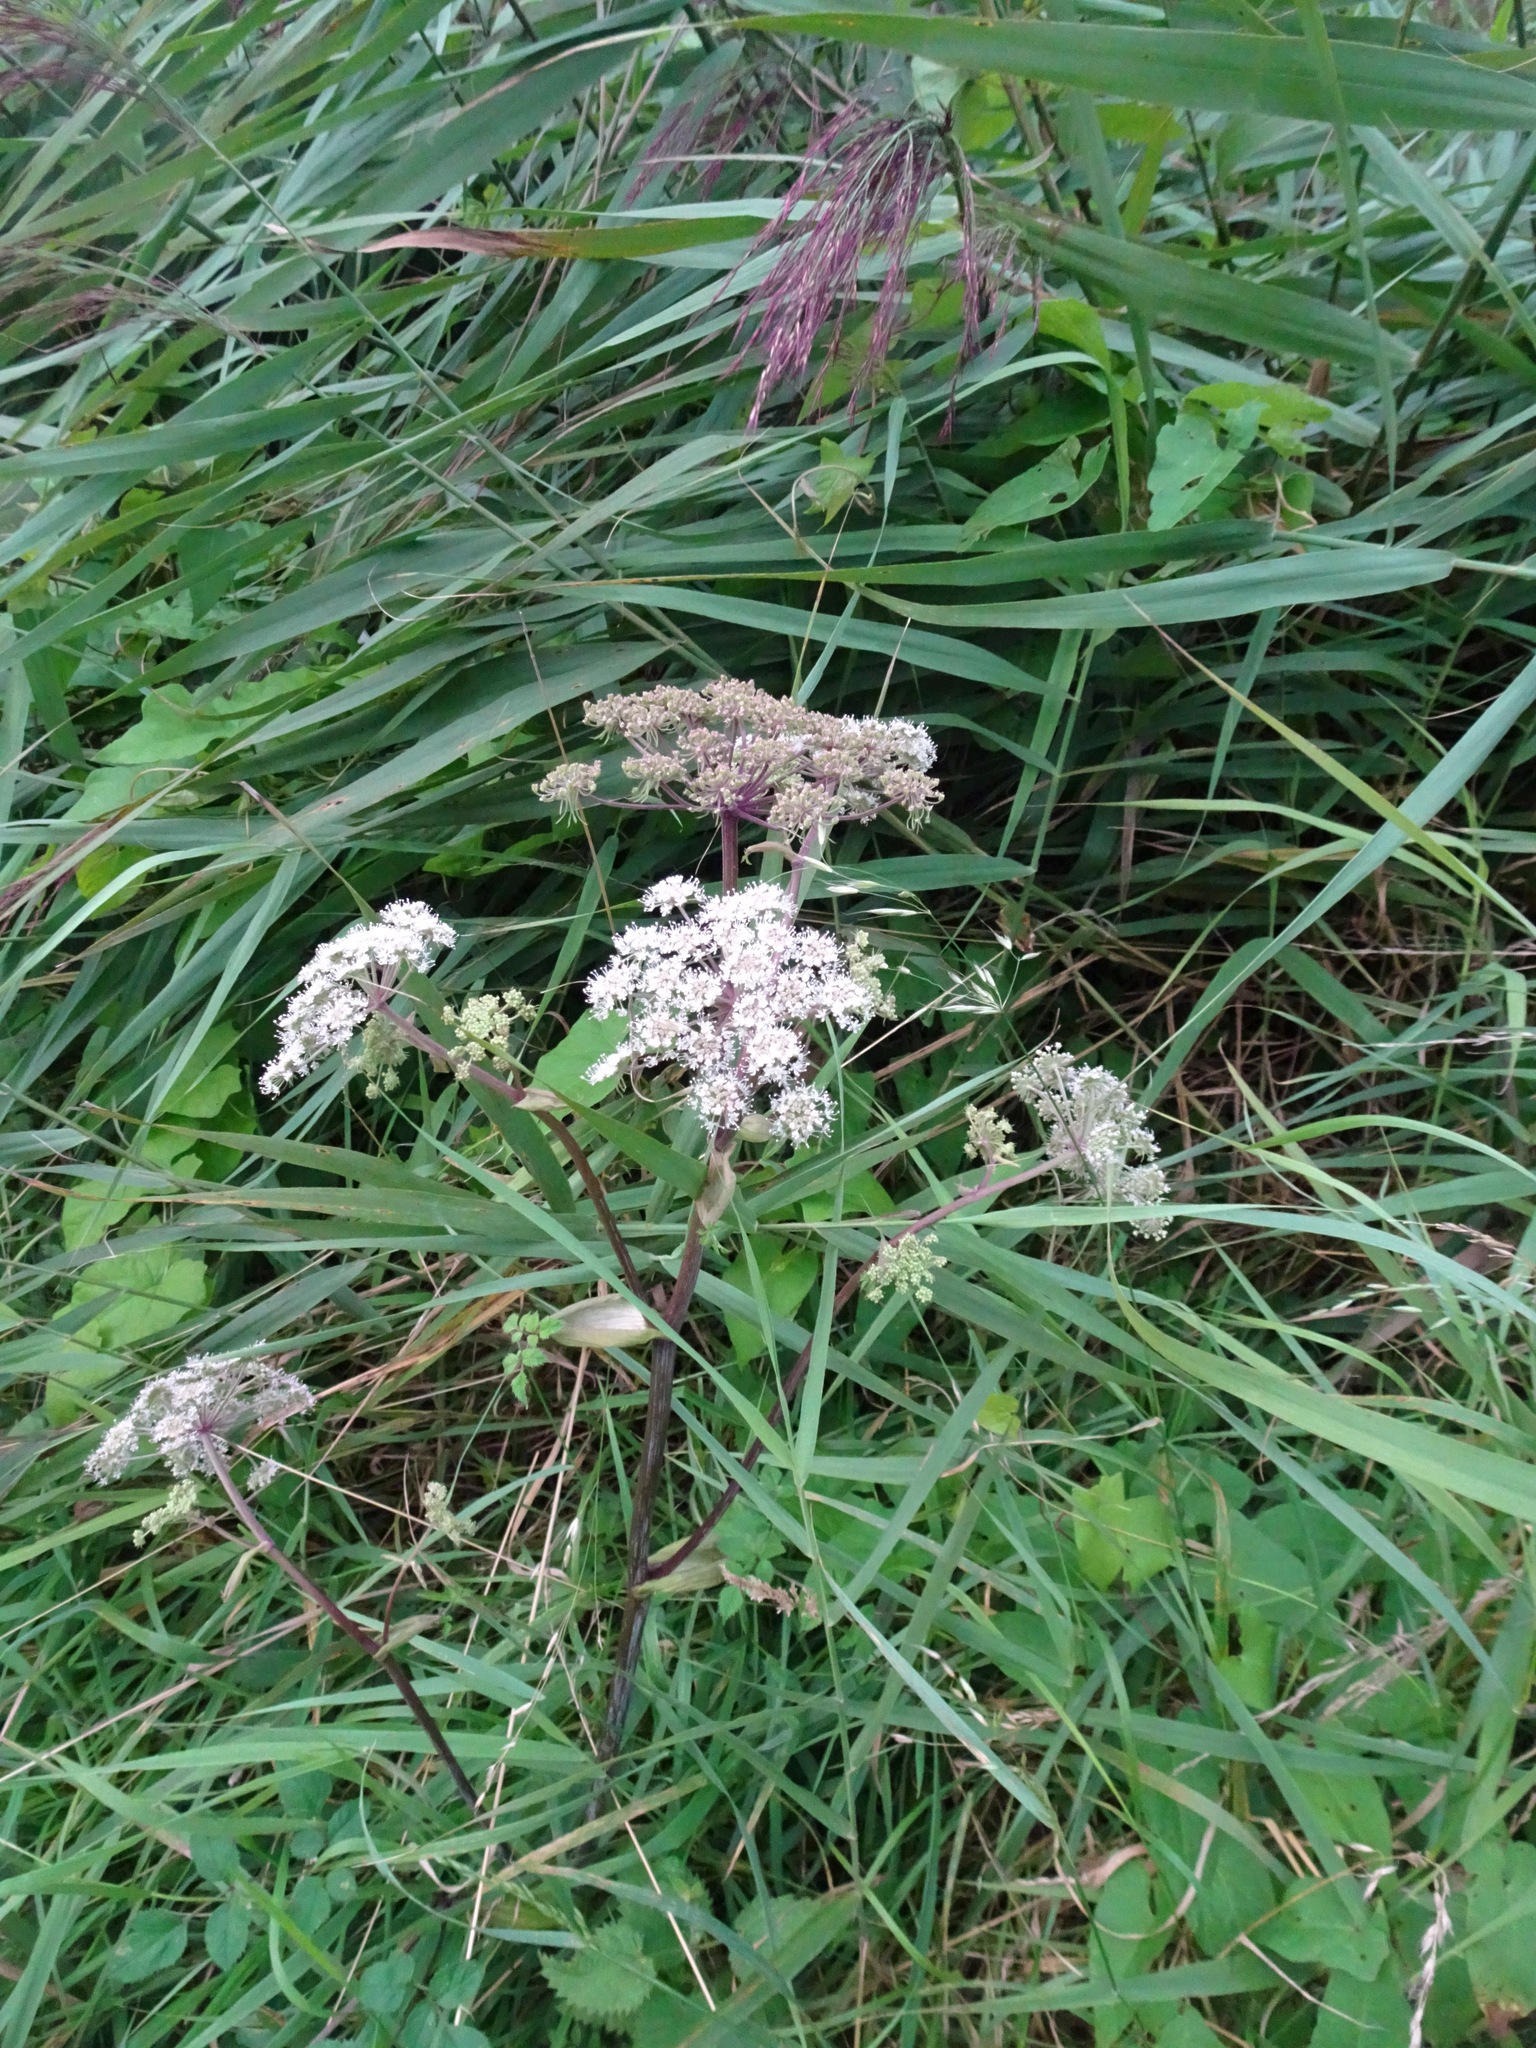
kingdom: Plantae
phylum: Tracheophyta
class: Magnoliopsida
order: Apiales
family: Apiaceae
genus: Angelica
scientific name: Angelica sylvestris
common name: Wild angelica
